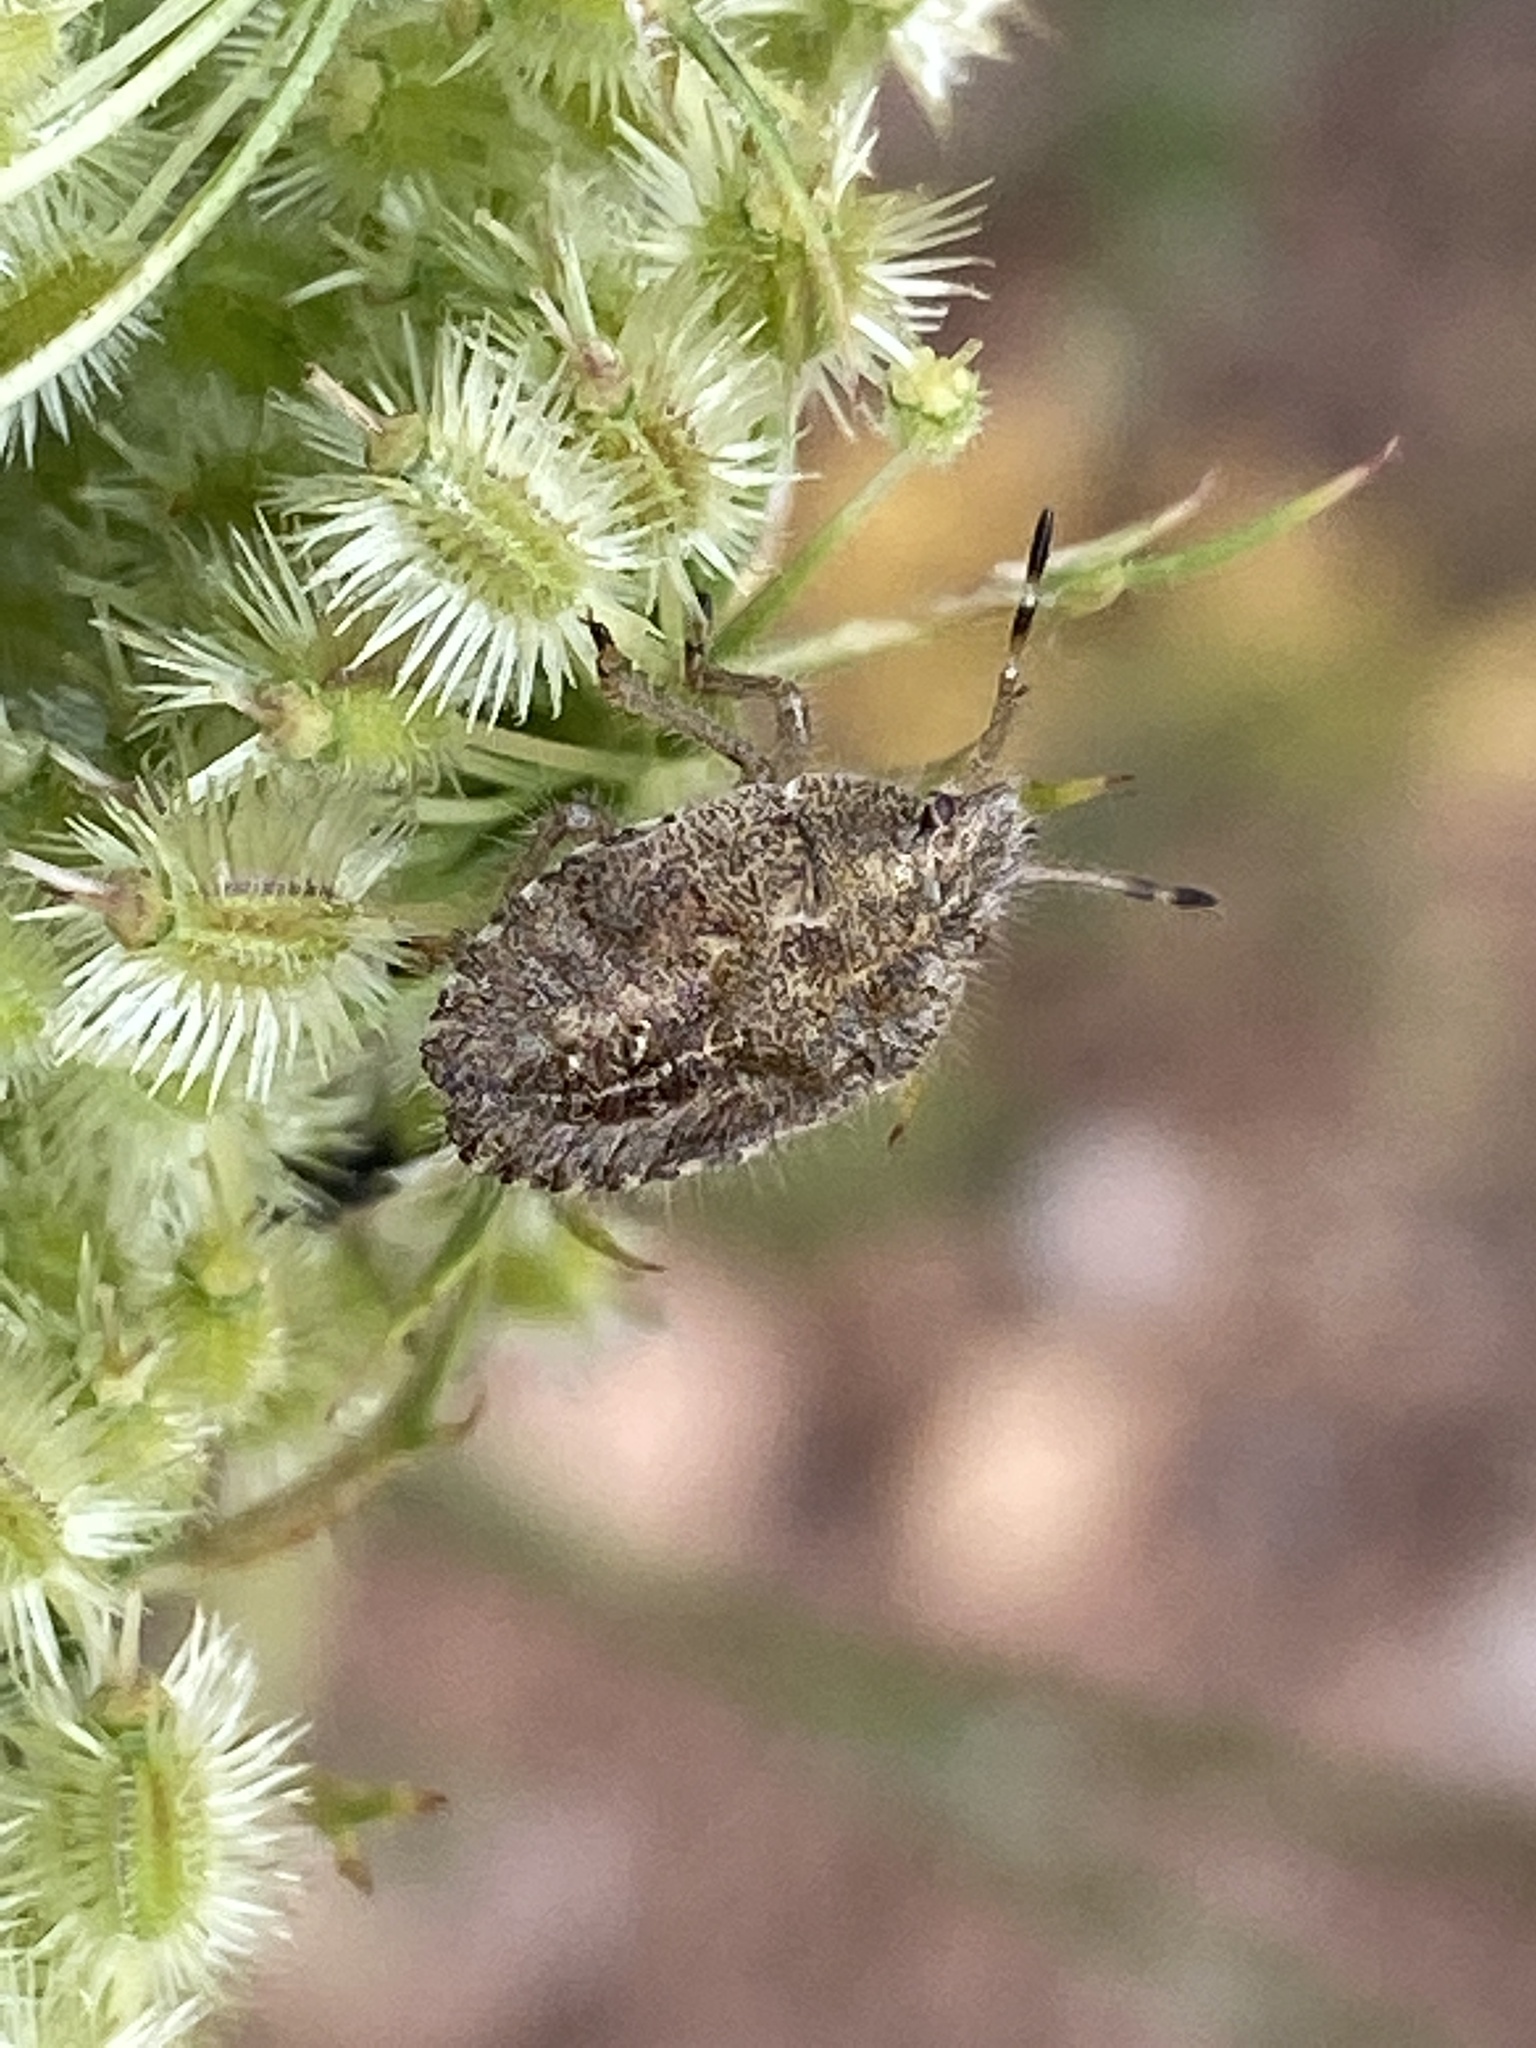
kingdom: Animalia
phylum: Arthropoda
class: Insecta
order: Hemiptera
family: Pentatomidae
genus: Dolycoris
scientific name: Dolycoris baccarum
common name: Sloe bug
